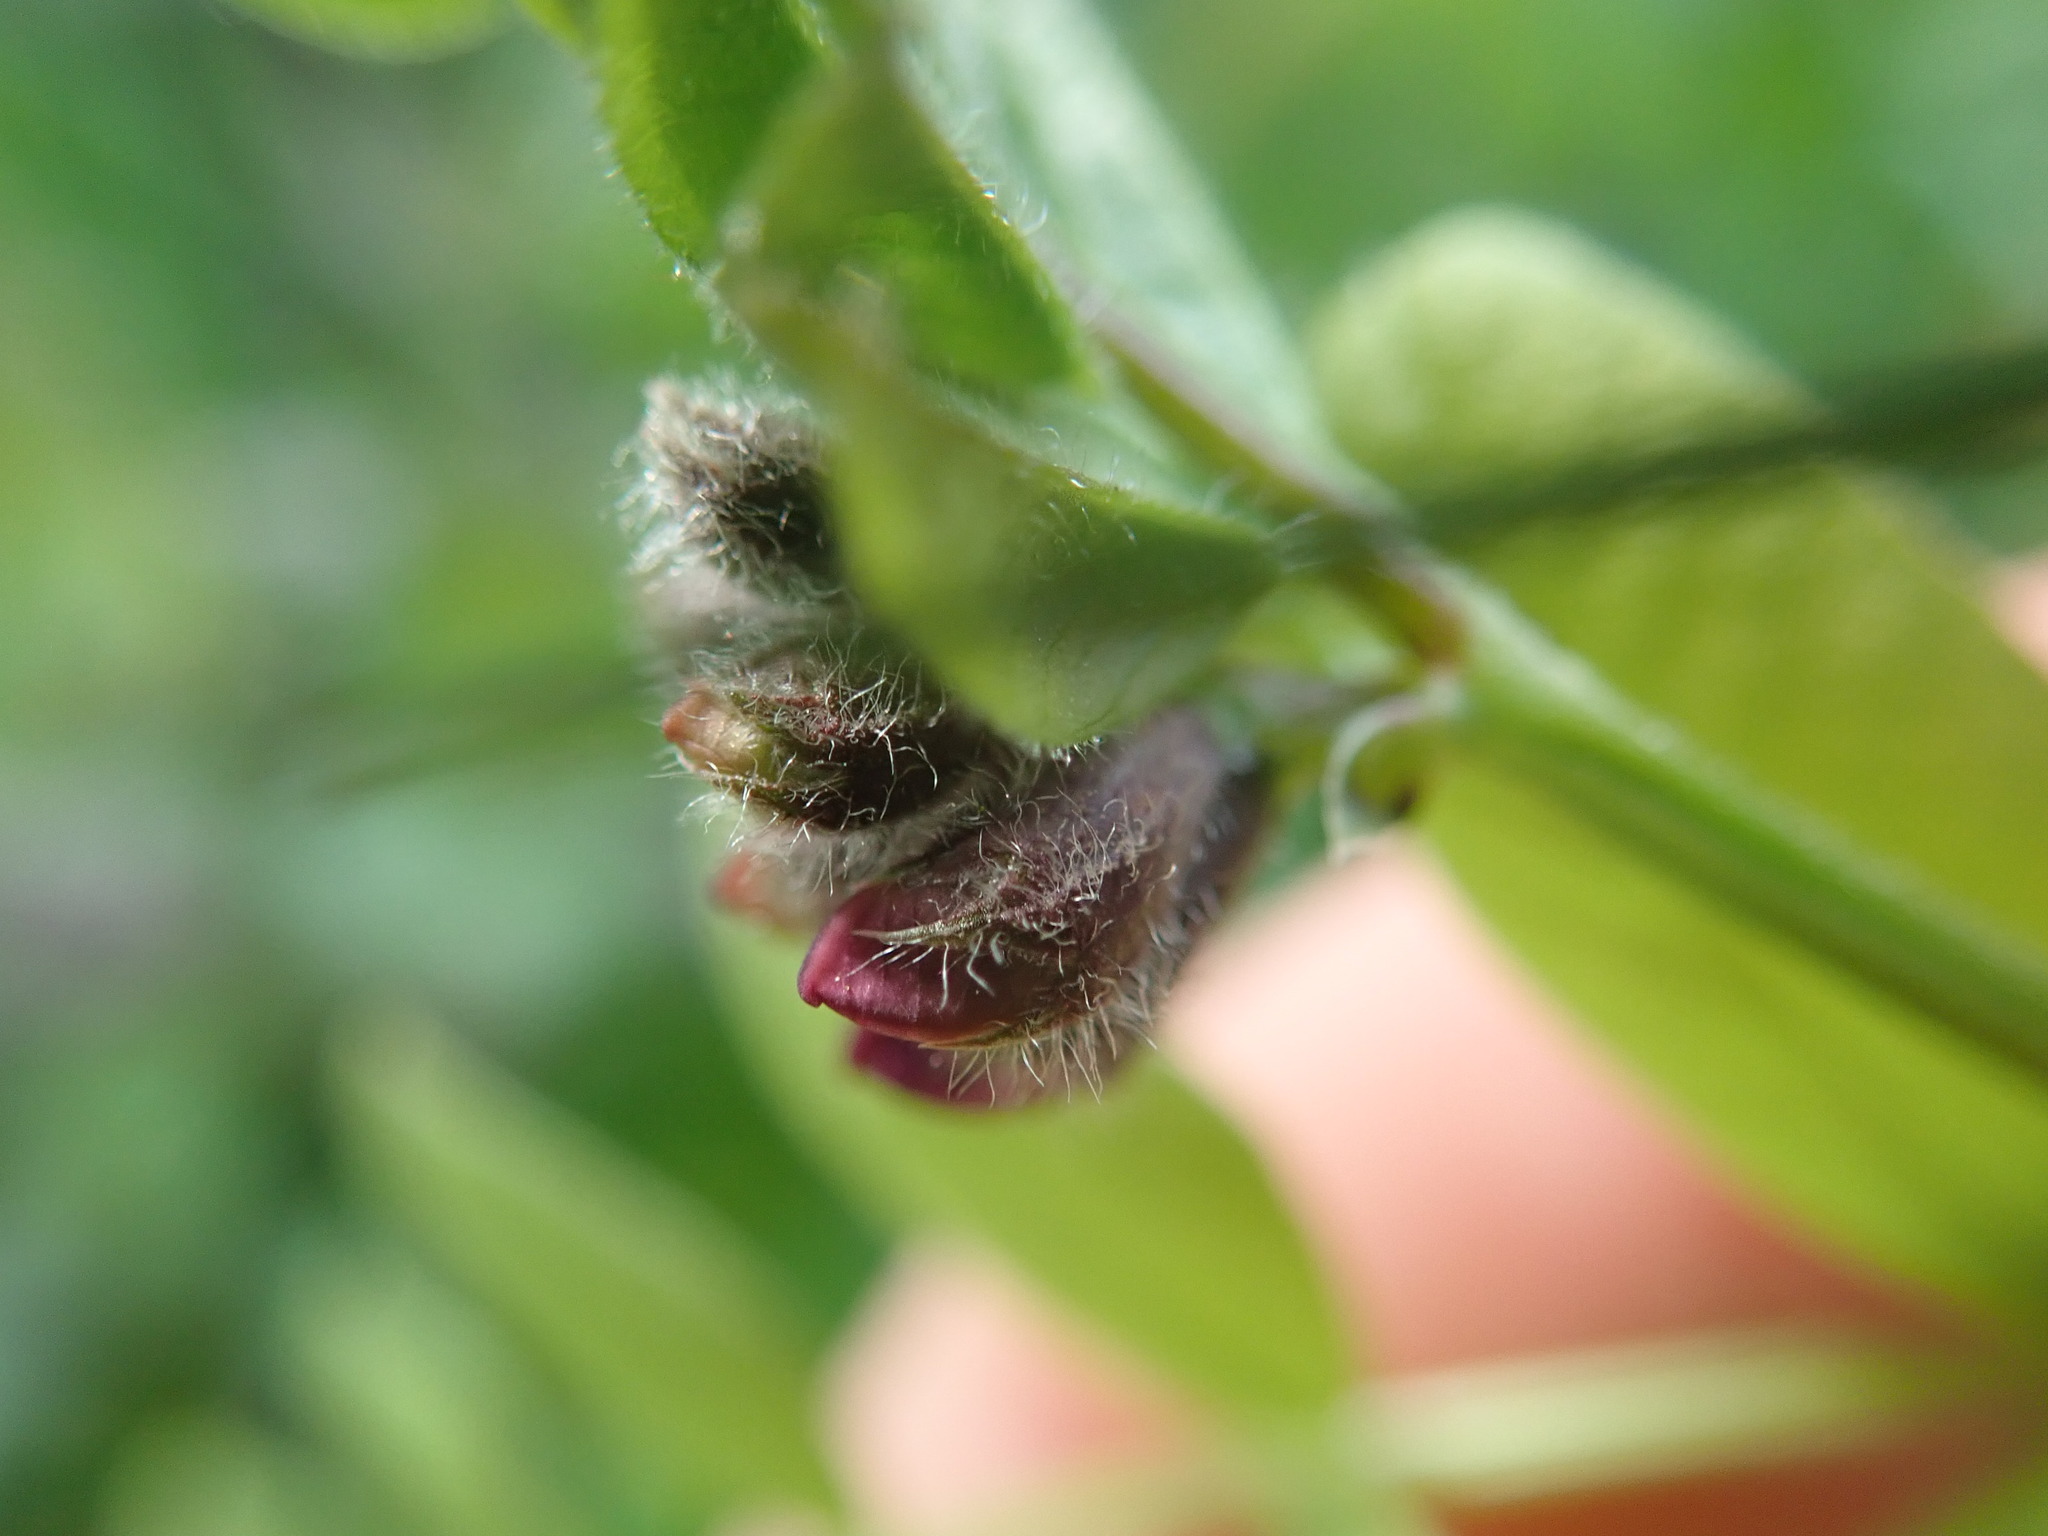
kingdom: Plantae
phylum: Tracheophyta
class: Magnoliopsida
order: Fabales
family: Fabaceae
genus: Vicia
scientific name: Vicia sepium
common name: Bush vetch
